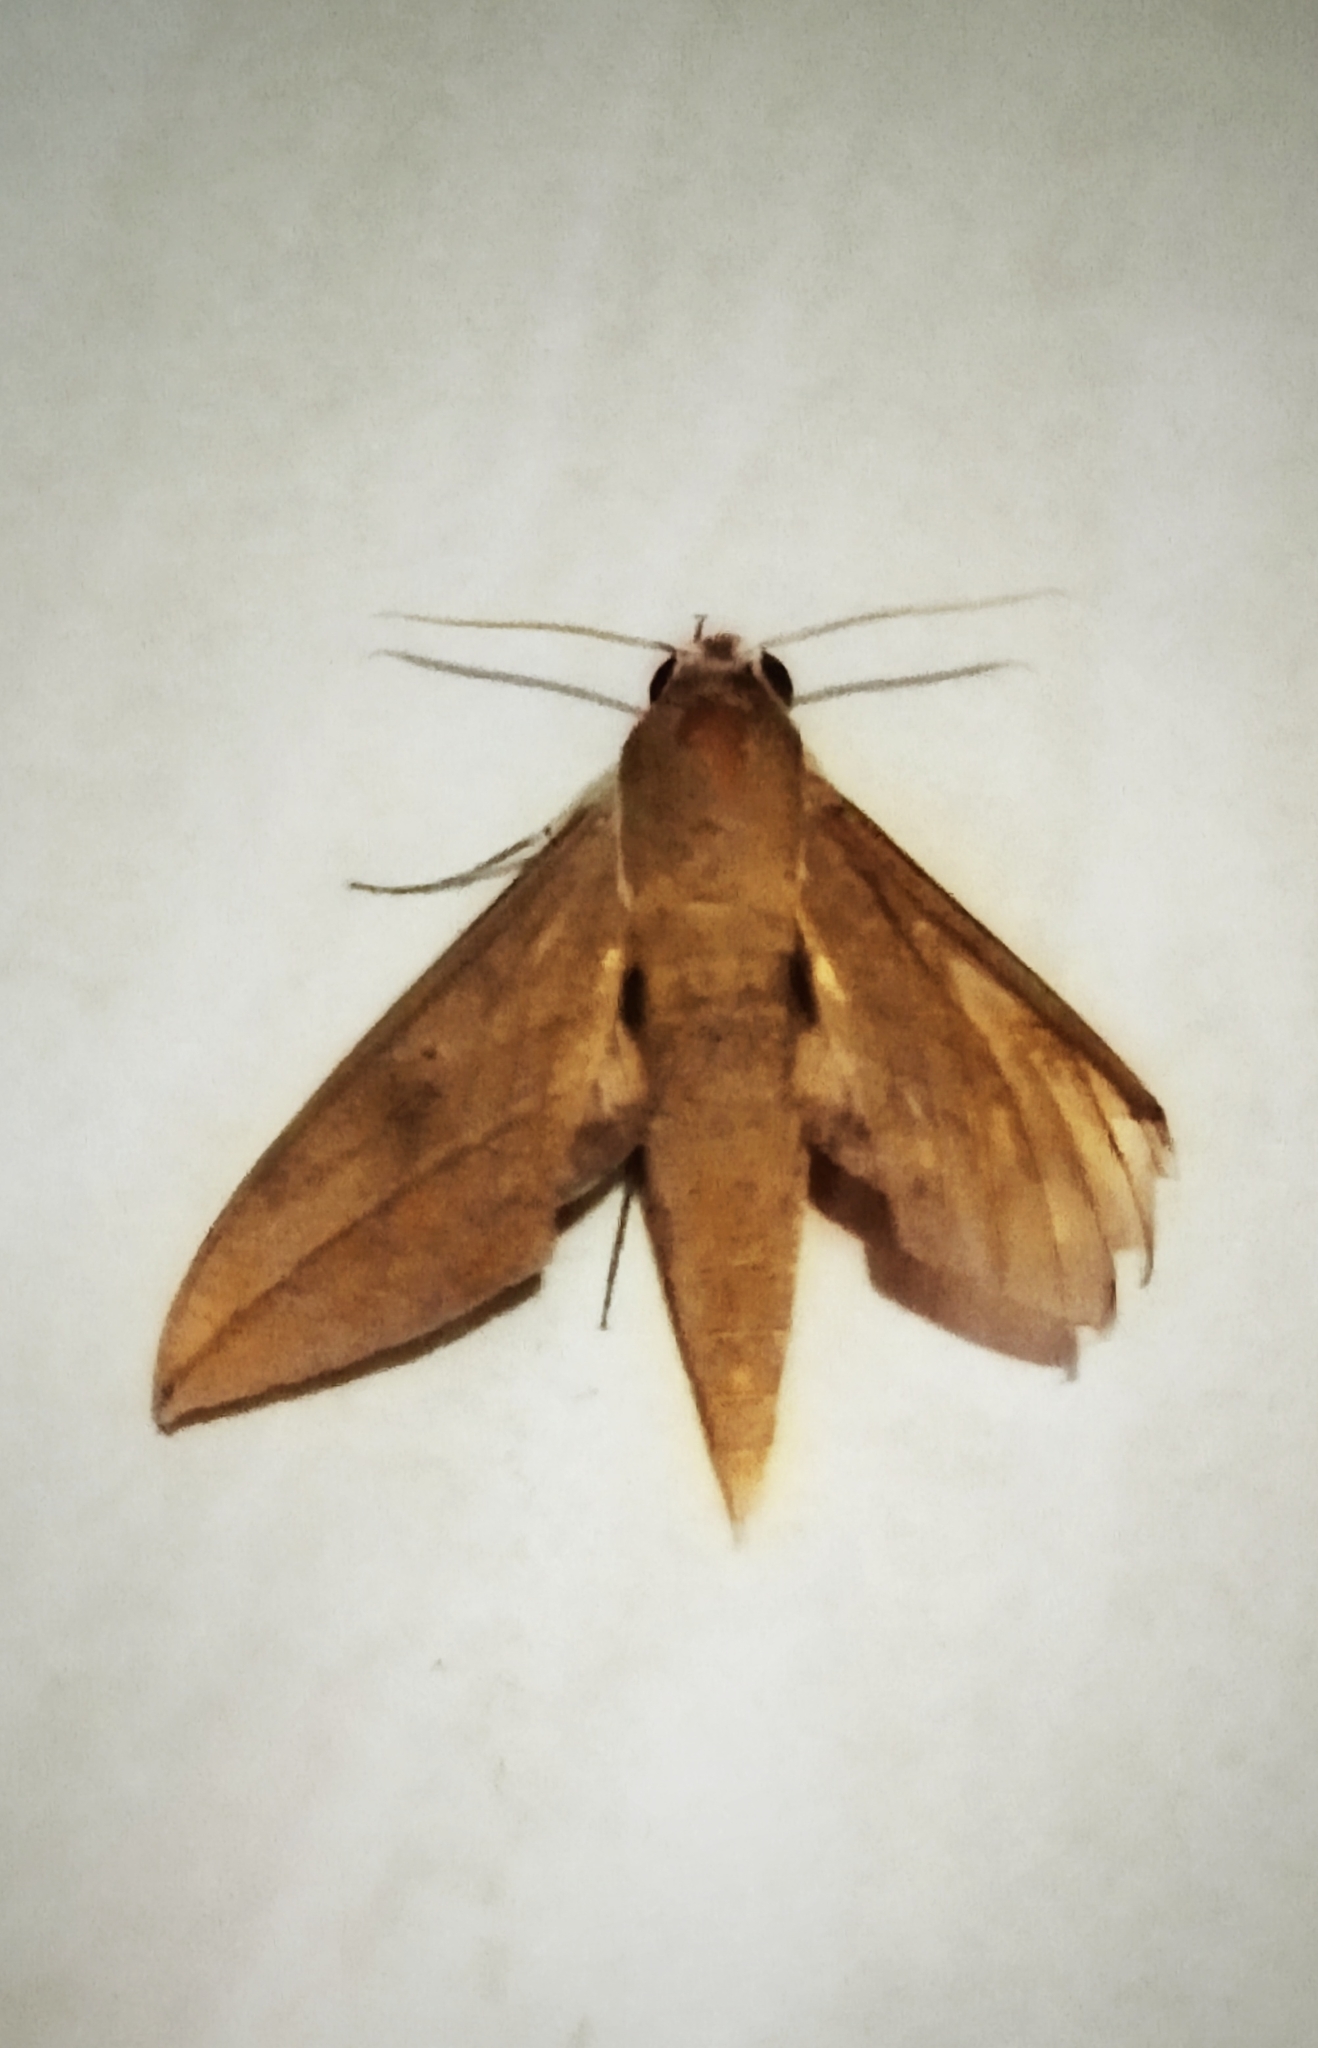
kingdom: Animalia
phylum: Arthropoda
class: Insecta
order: Lepidoptera
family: Sphingidae
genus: Theretra
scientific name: Theretra clotho
